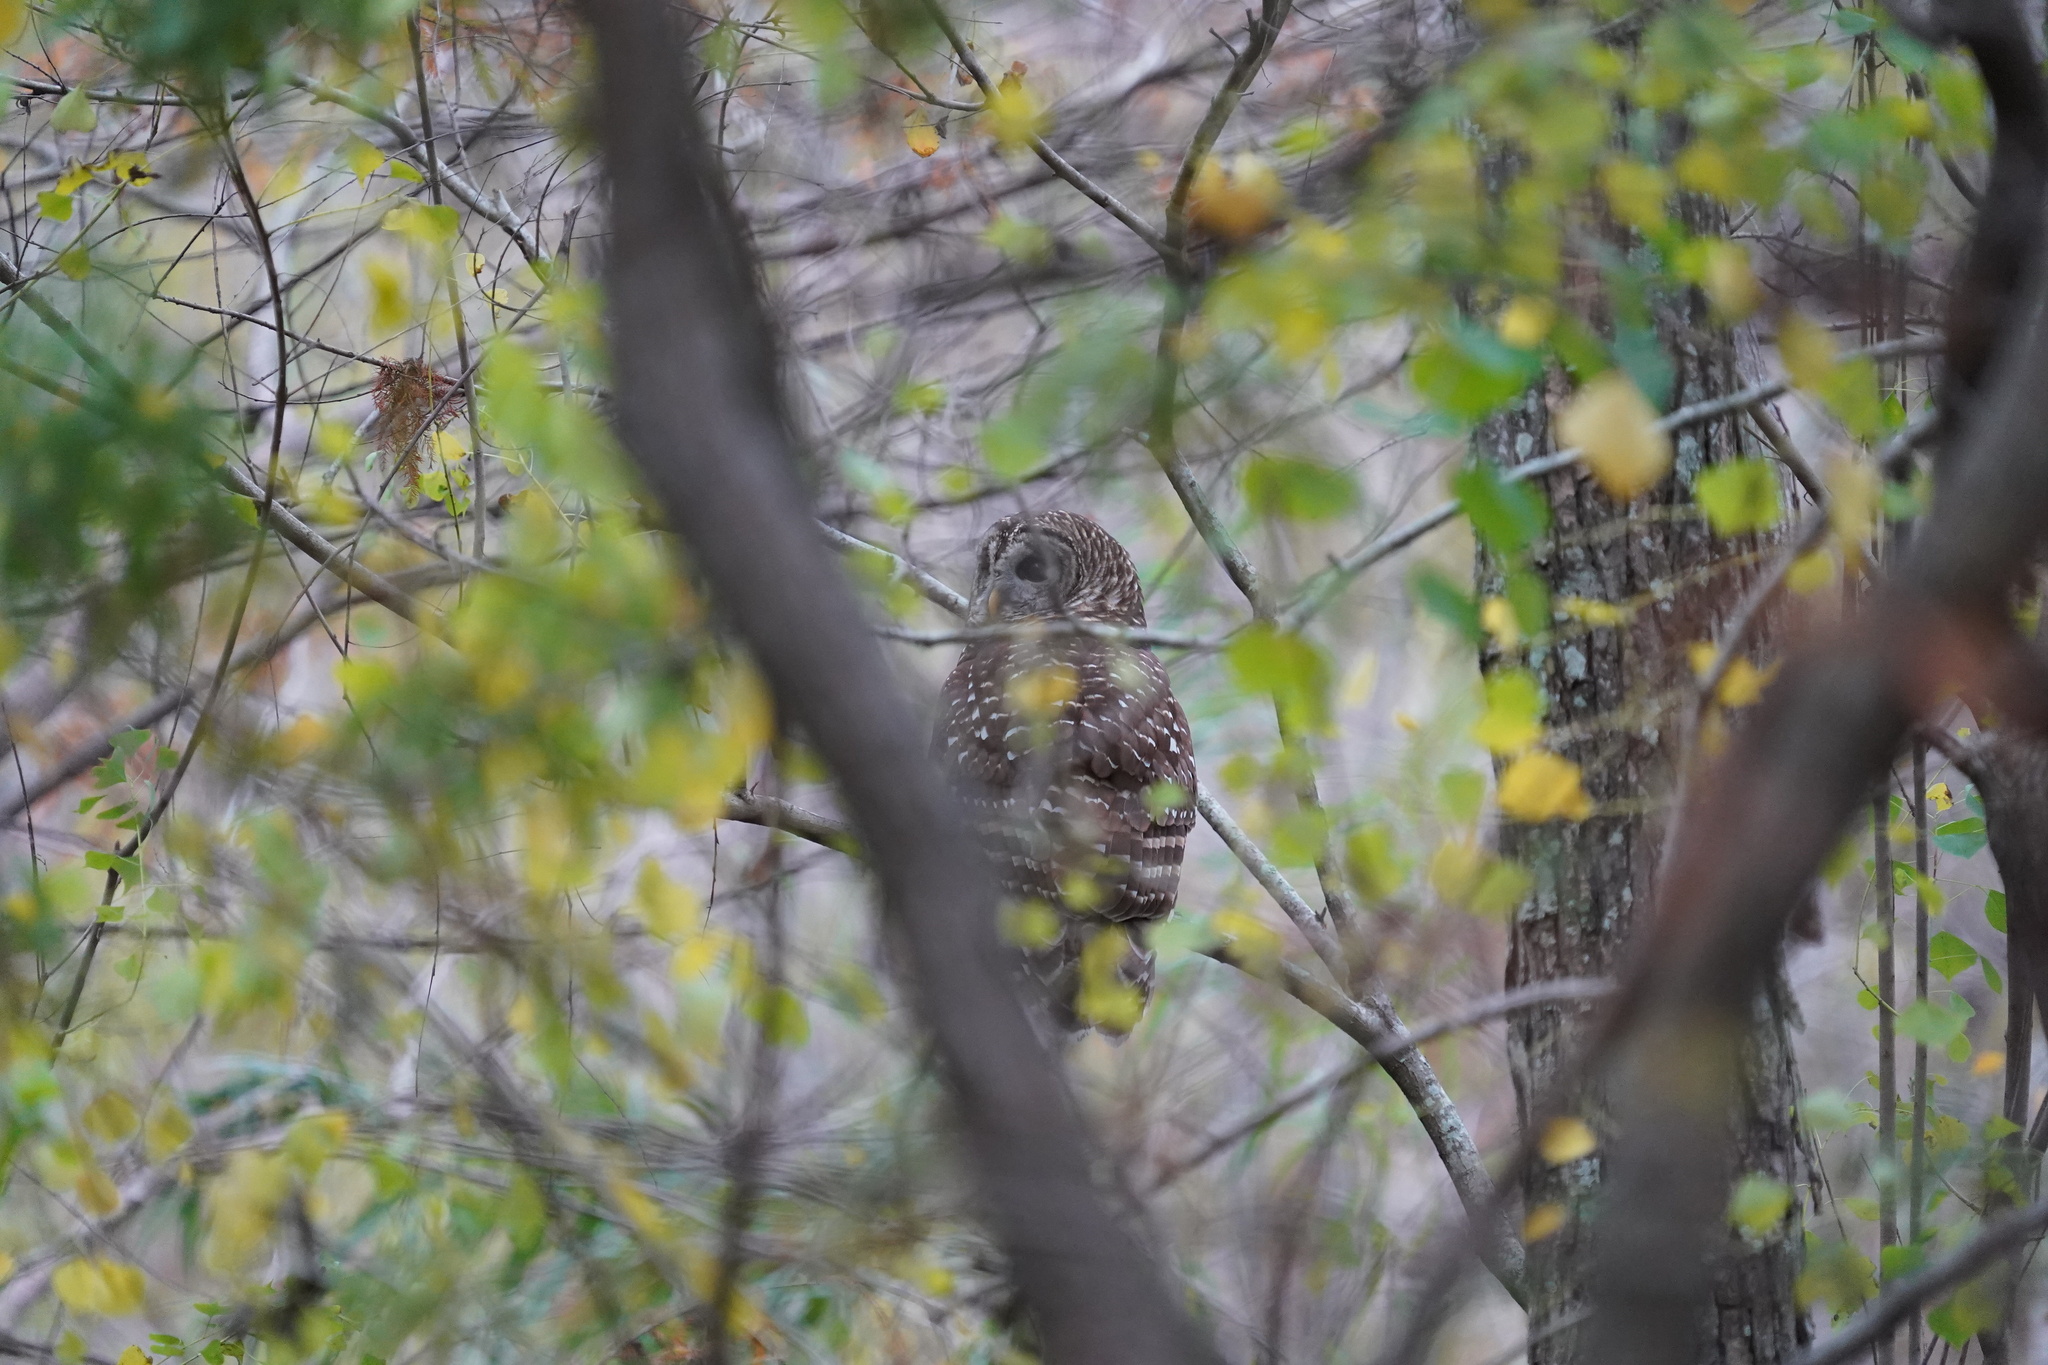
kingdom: Animalia
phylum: Chordata
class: Aves
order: Strigiformes
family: Strigidae
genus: Strix
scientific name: Strix varia
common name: Barred owl
